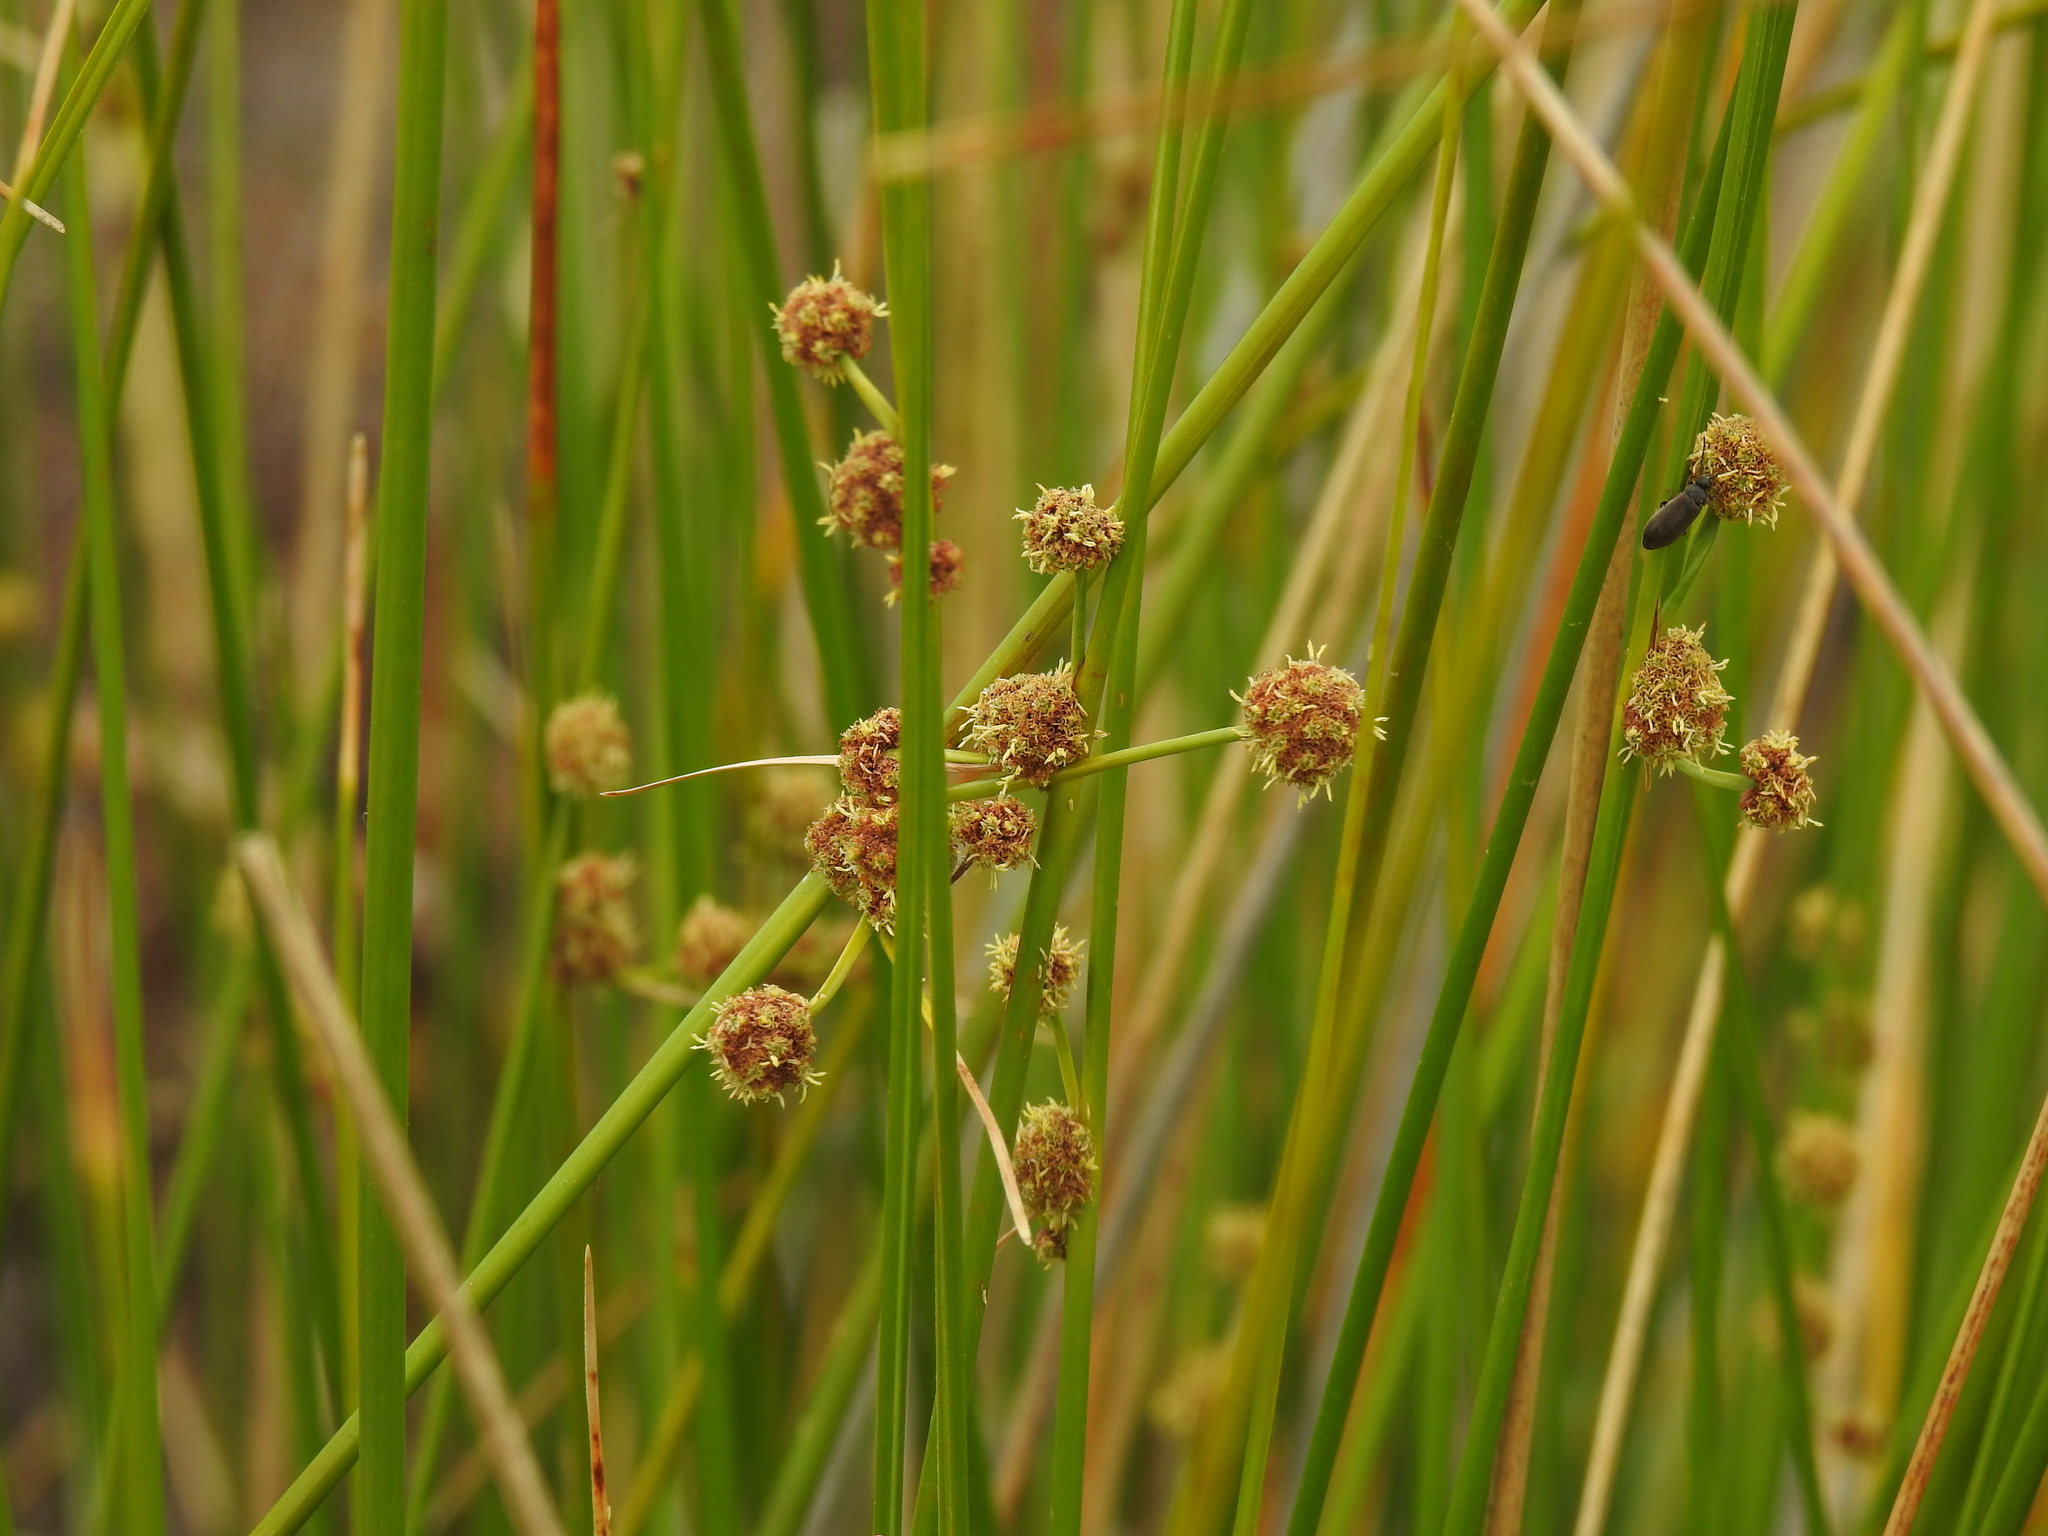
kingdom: Plantae
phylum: Tracheophyta
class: Liliopsida
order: Poales
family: Cyperaceae
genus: Scirpoides
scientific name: Scirpoides holoschoenus
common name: Round-headed club-rush
